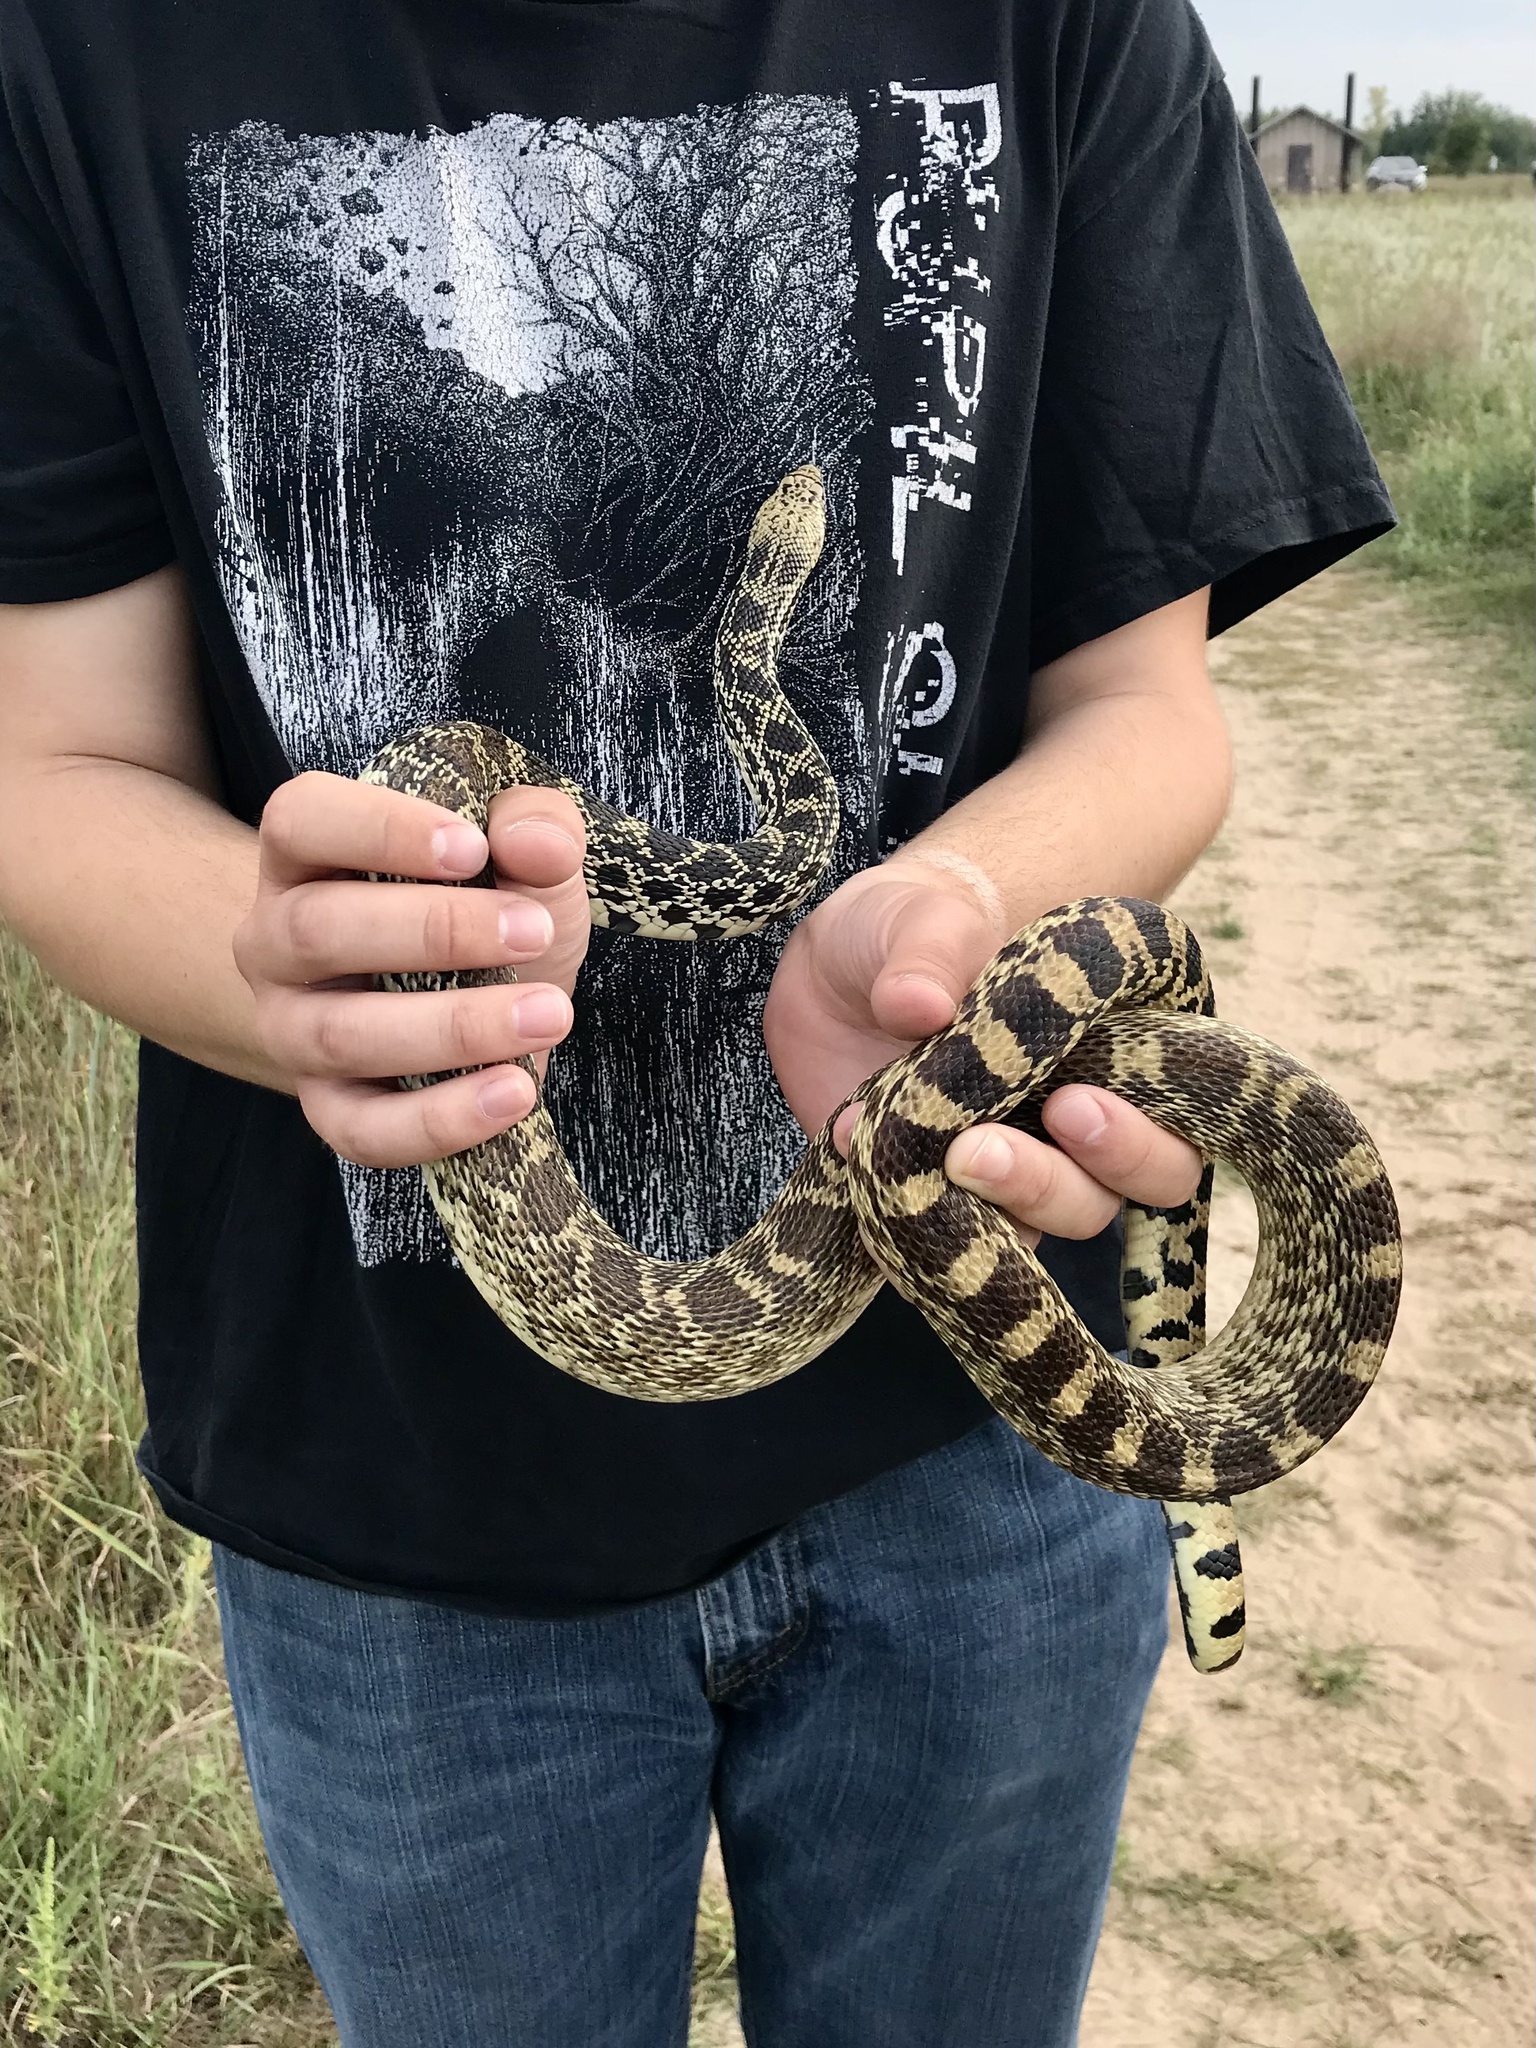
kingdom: Animalia
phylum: Chordata
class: Squamata
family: Colubridae
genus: Pituophis
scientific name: Pituophis catenifer
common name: Gopher snake
